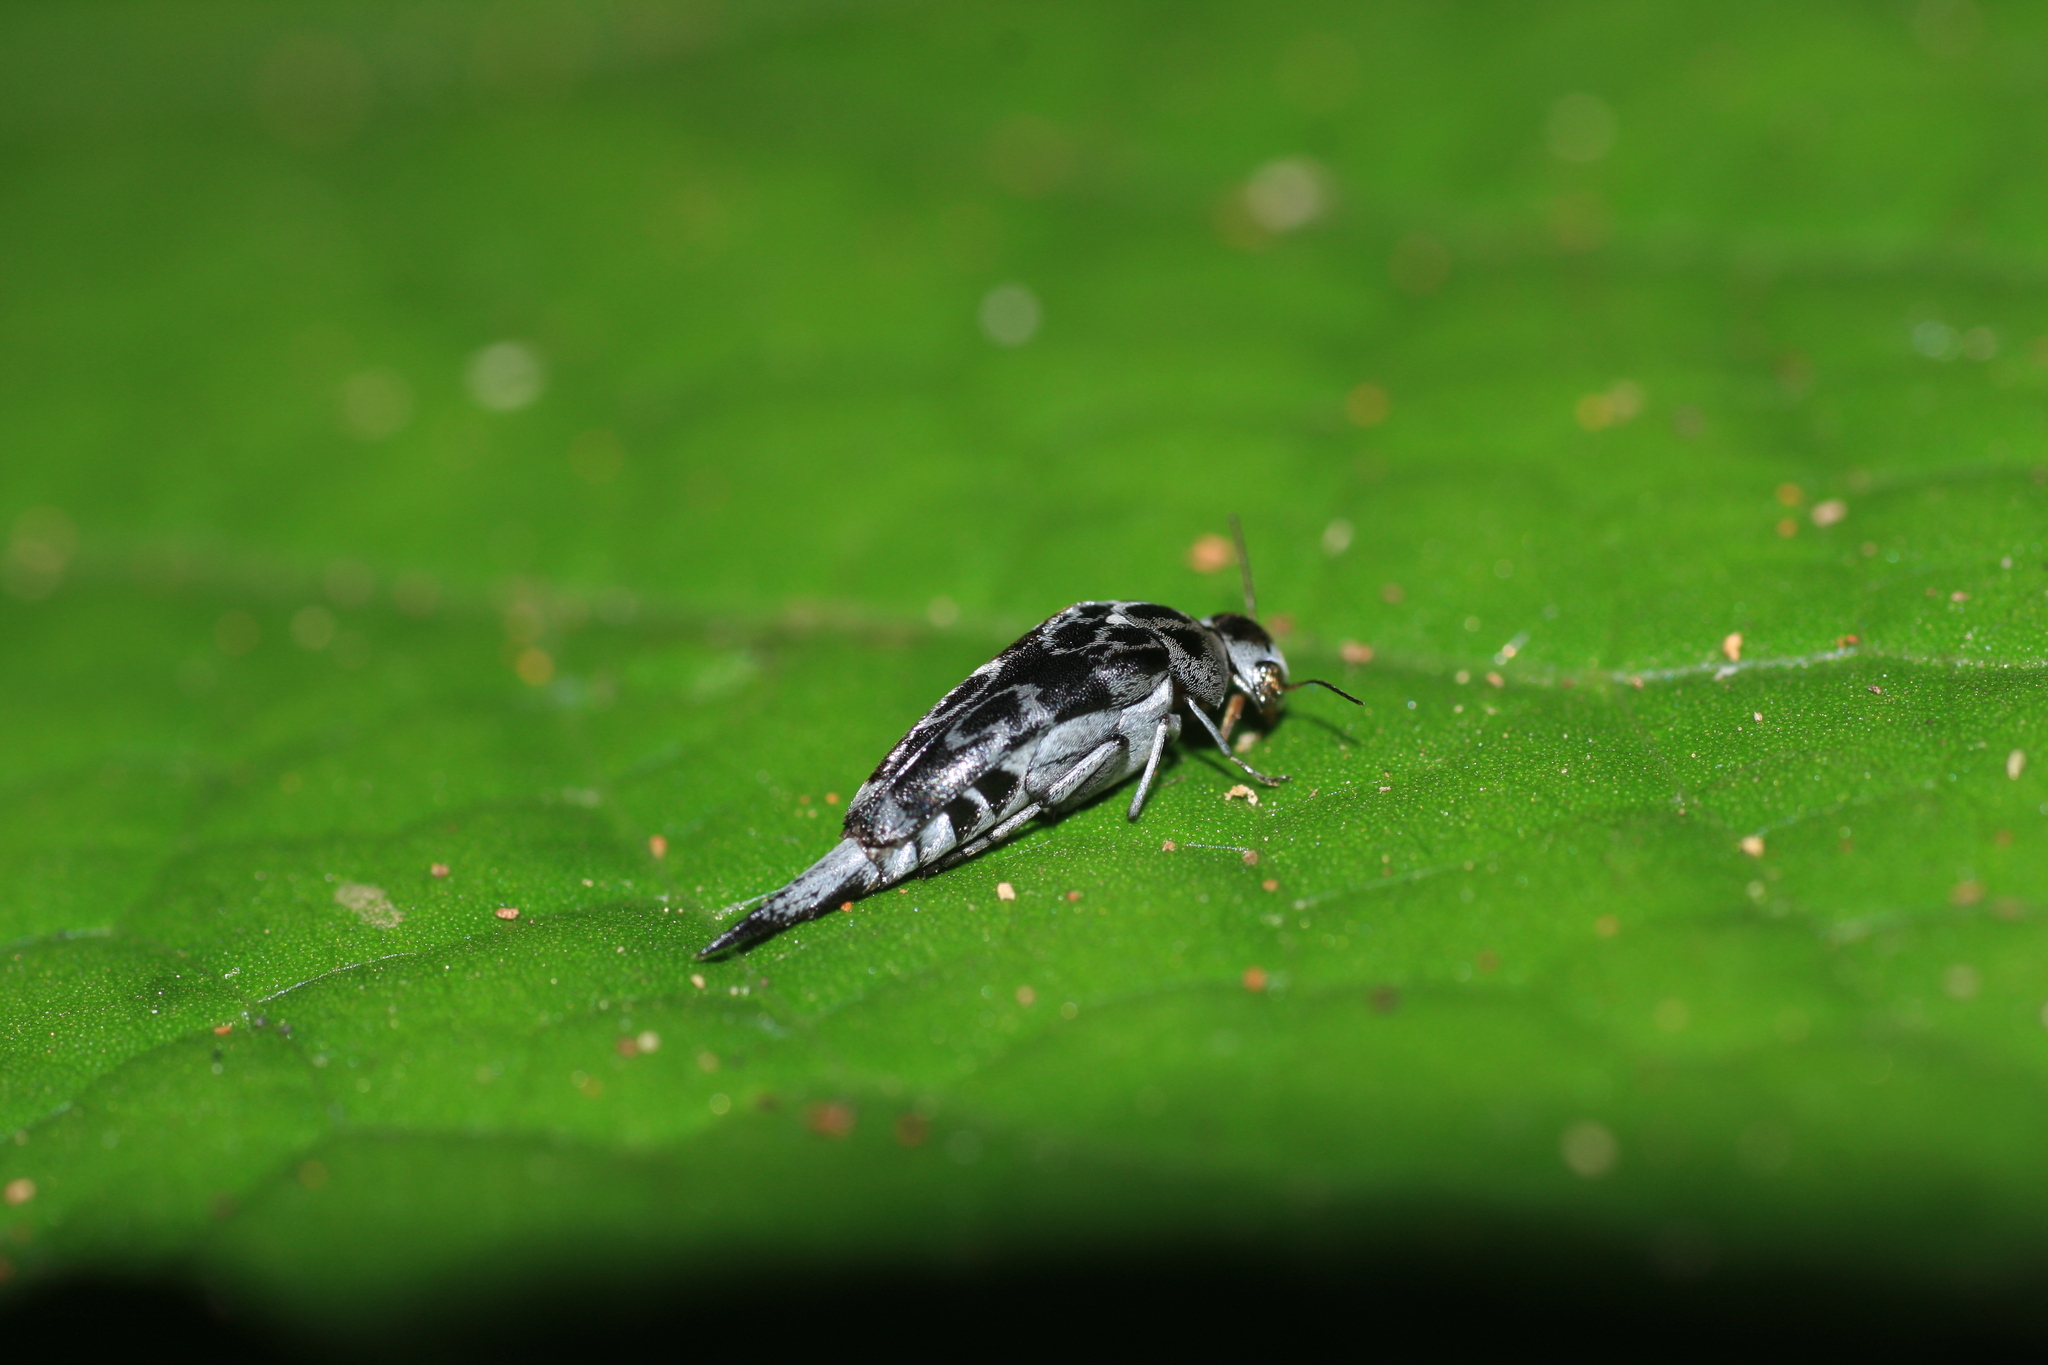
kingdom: Animalia
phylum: Arthropoda
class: Insecta
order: Coleoptera
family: Mordellidae
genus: Glipa
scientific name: Glipa
